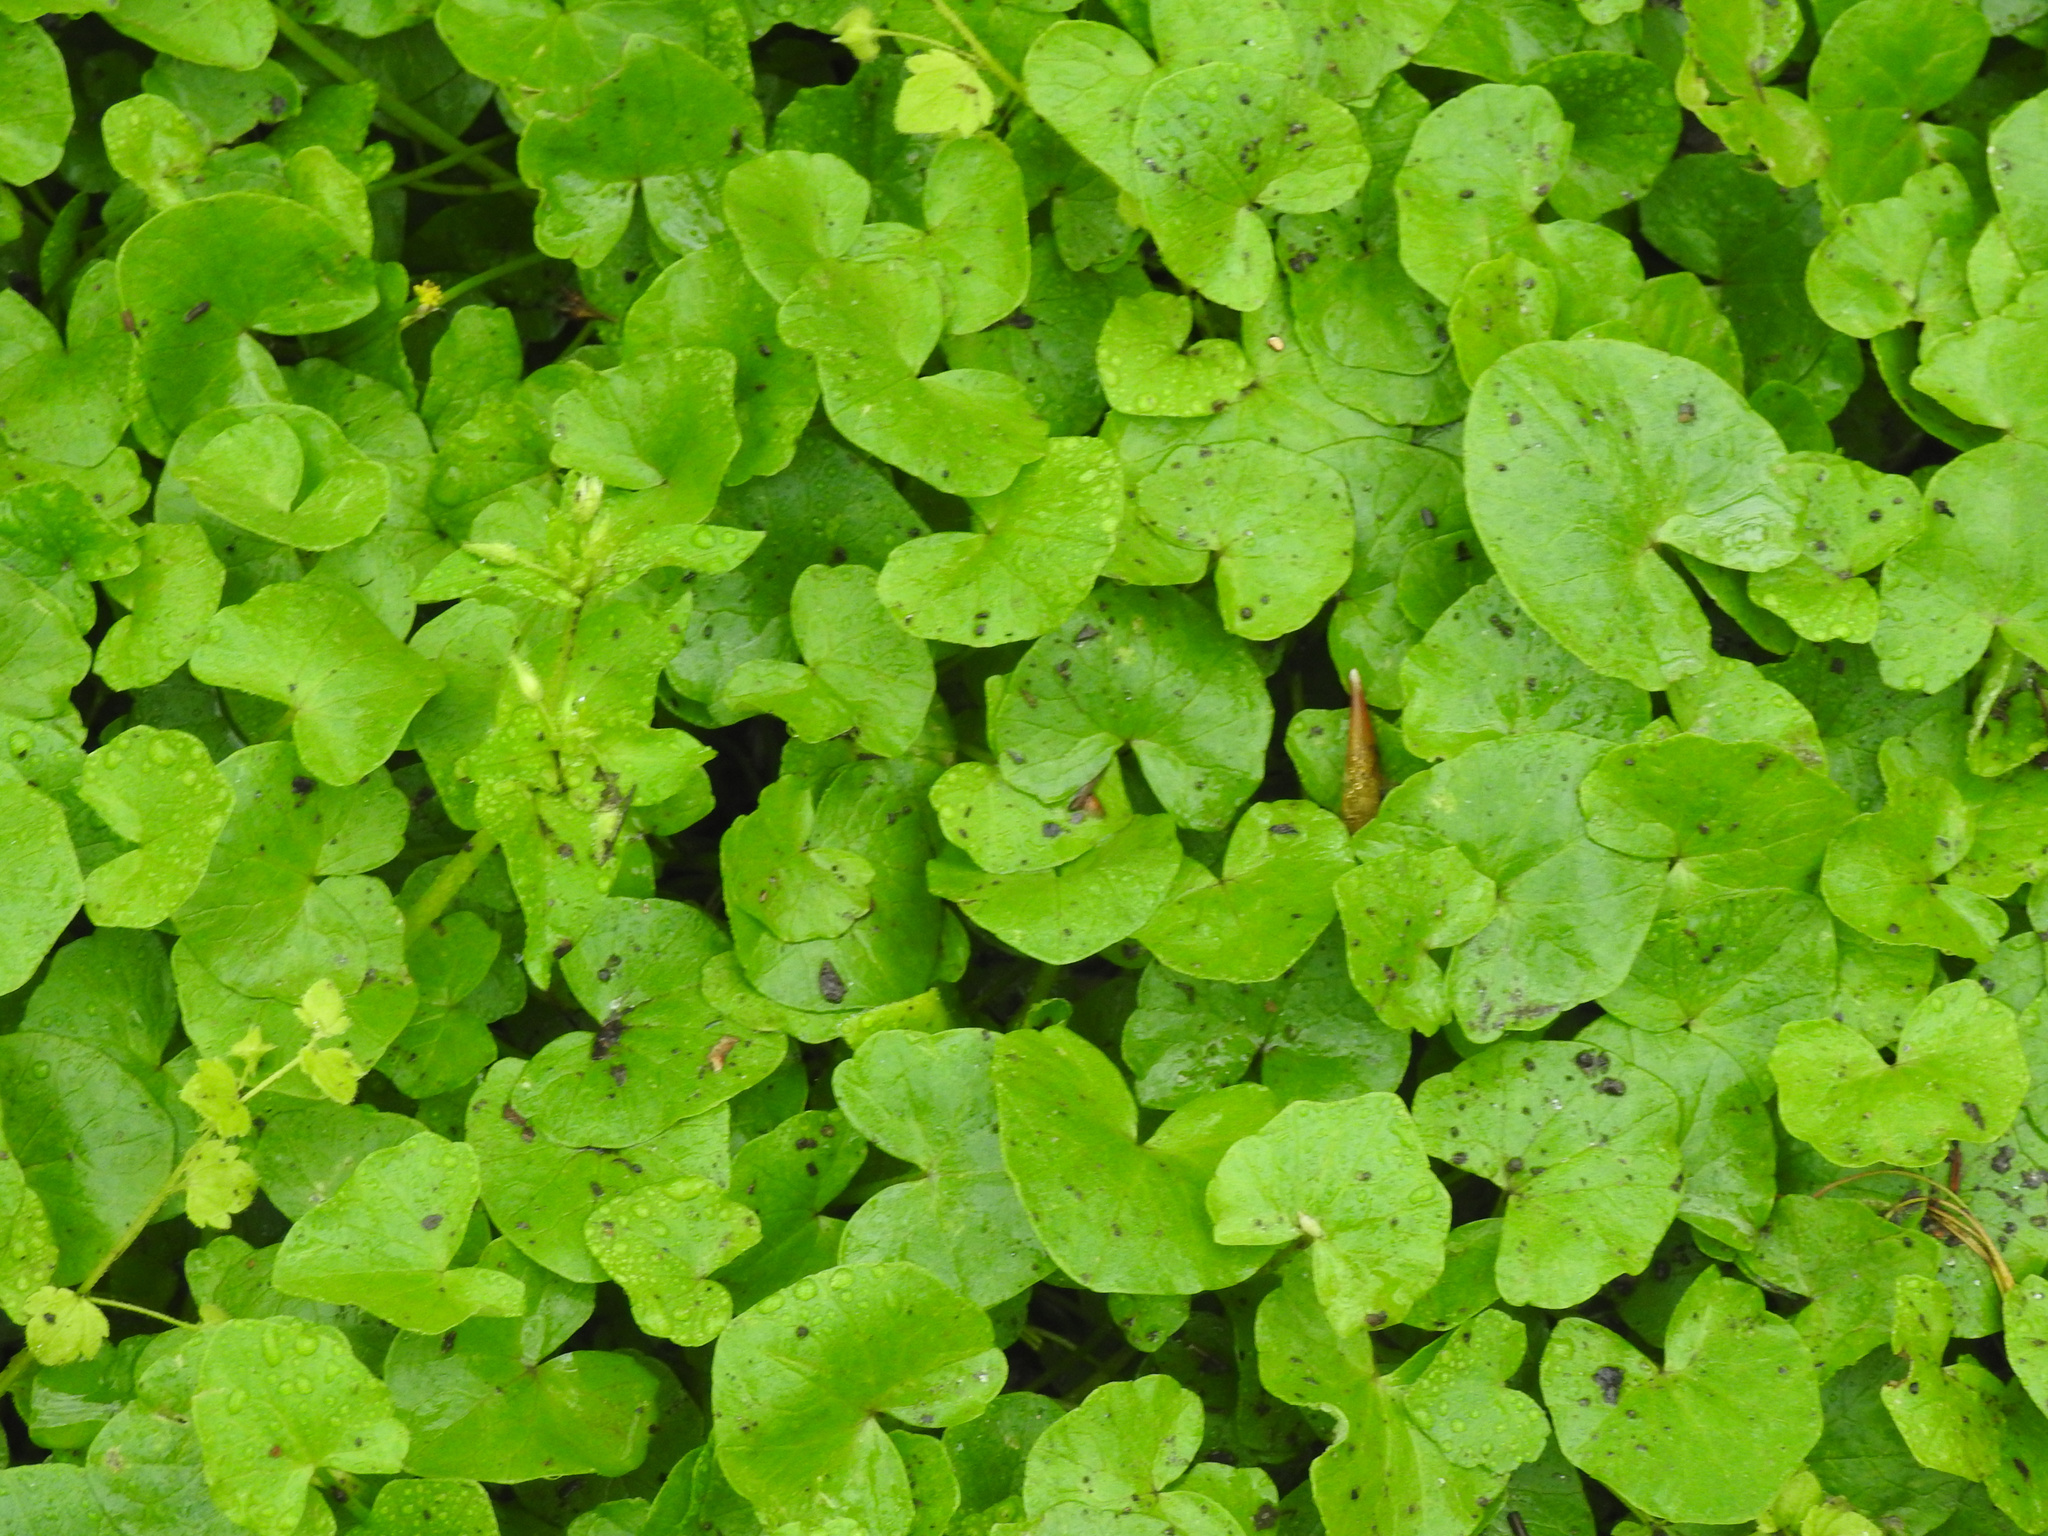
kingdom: Plantae
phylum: Tracheophyta
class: Magnoliopsida
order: Ranunculales
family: Ranunculaceae
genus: Ficaria
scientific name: Ficaria verna
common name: Lesser celandine
